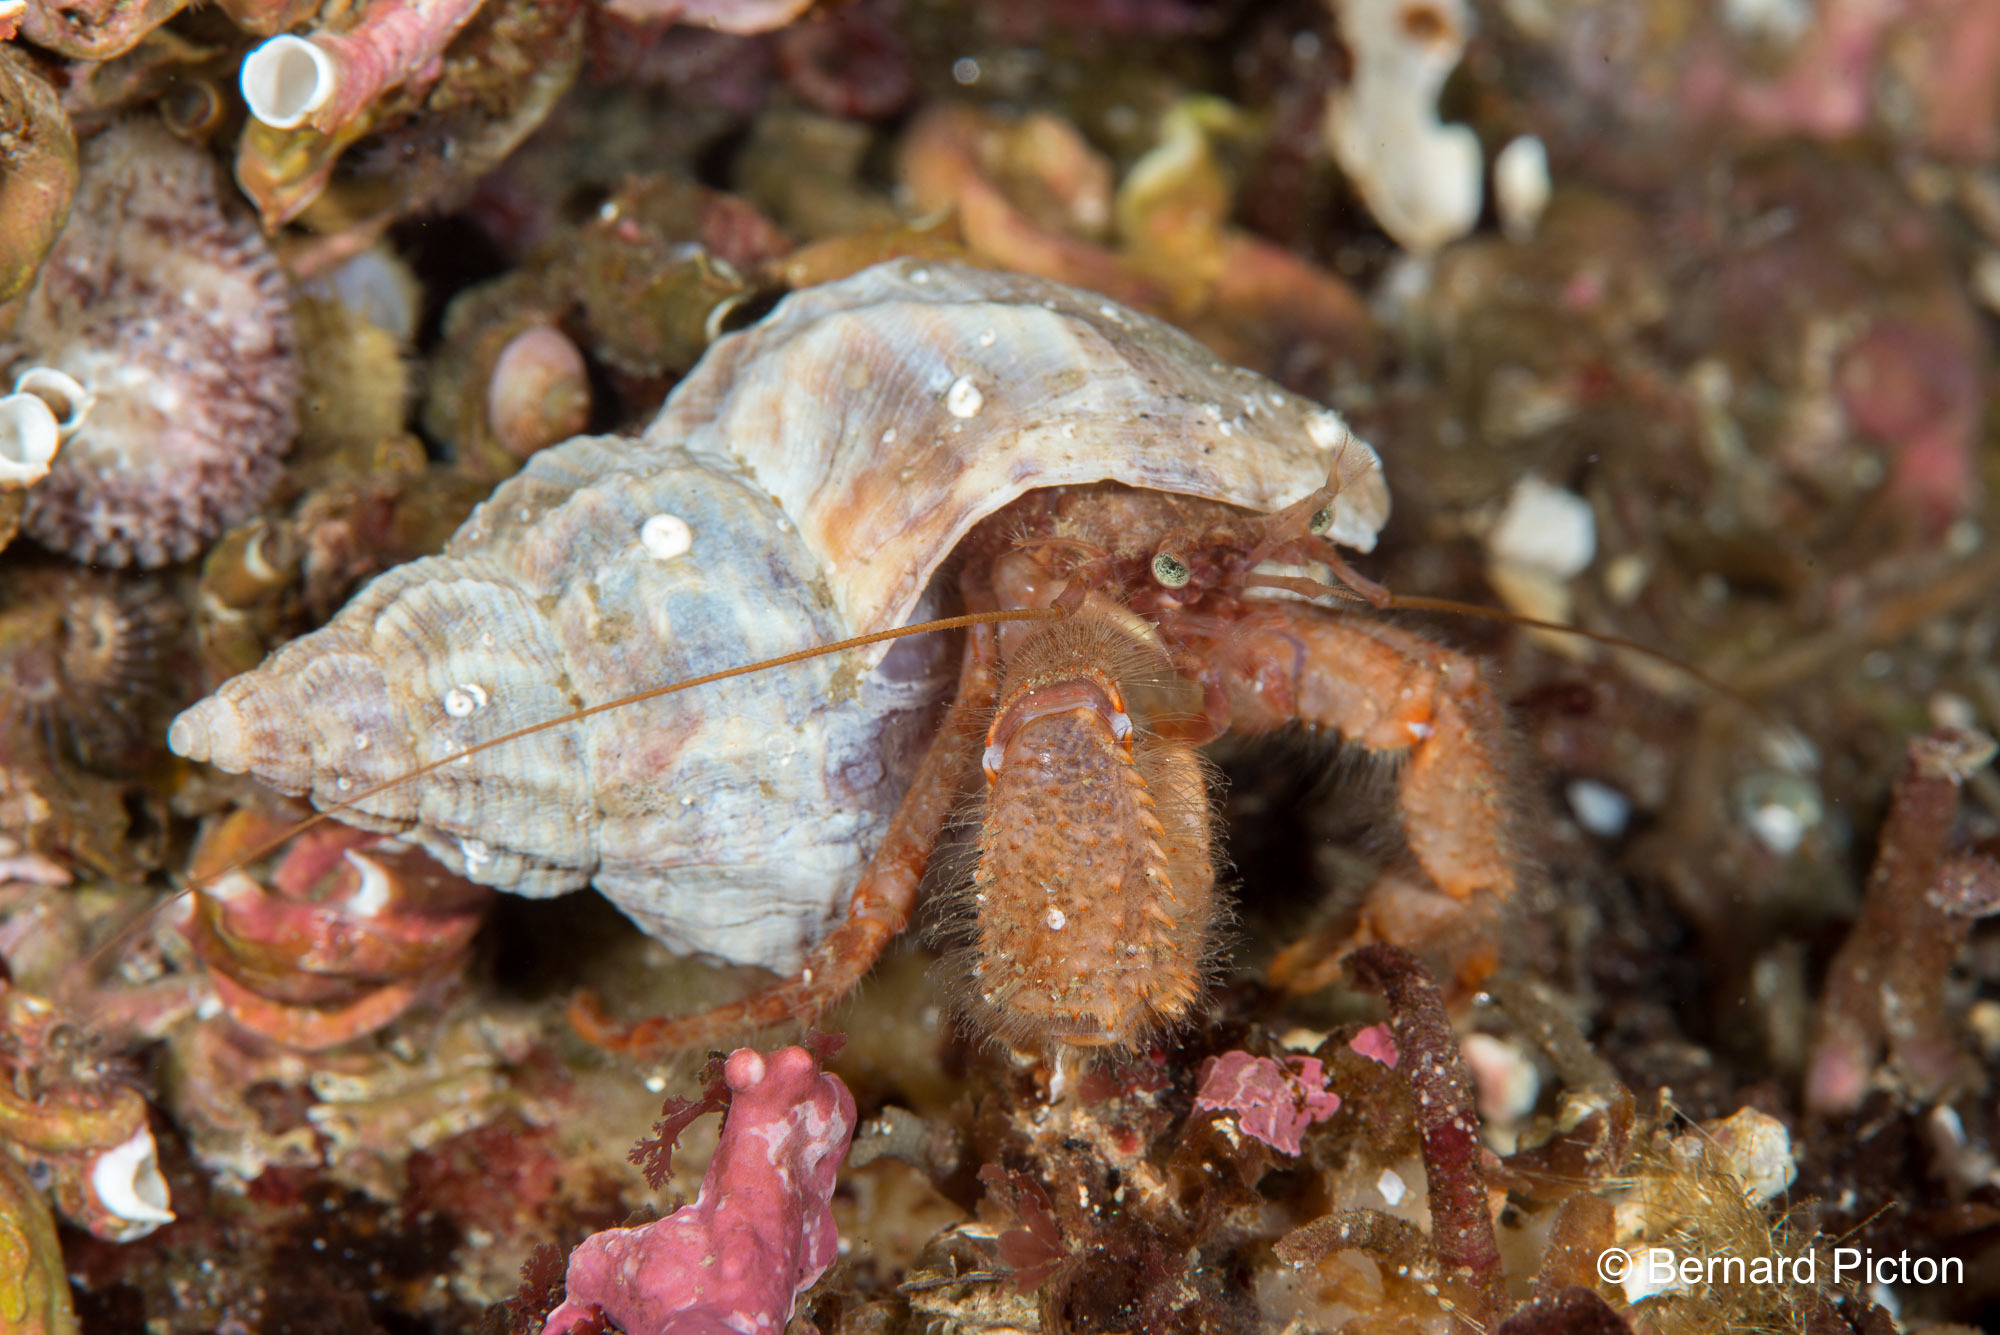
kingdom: Animalia
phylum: Arthropoda
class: Malacostraca
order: Decapoda
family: Paguridae
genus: Pagurus
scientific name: Pagurus pubescens
